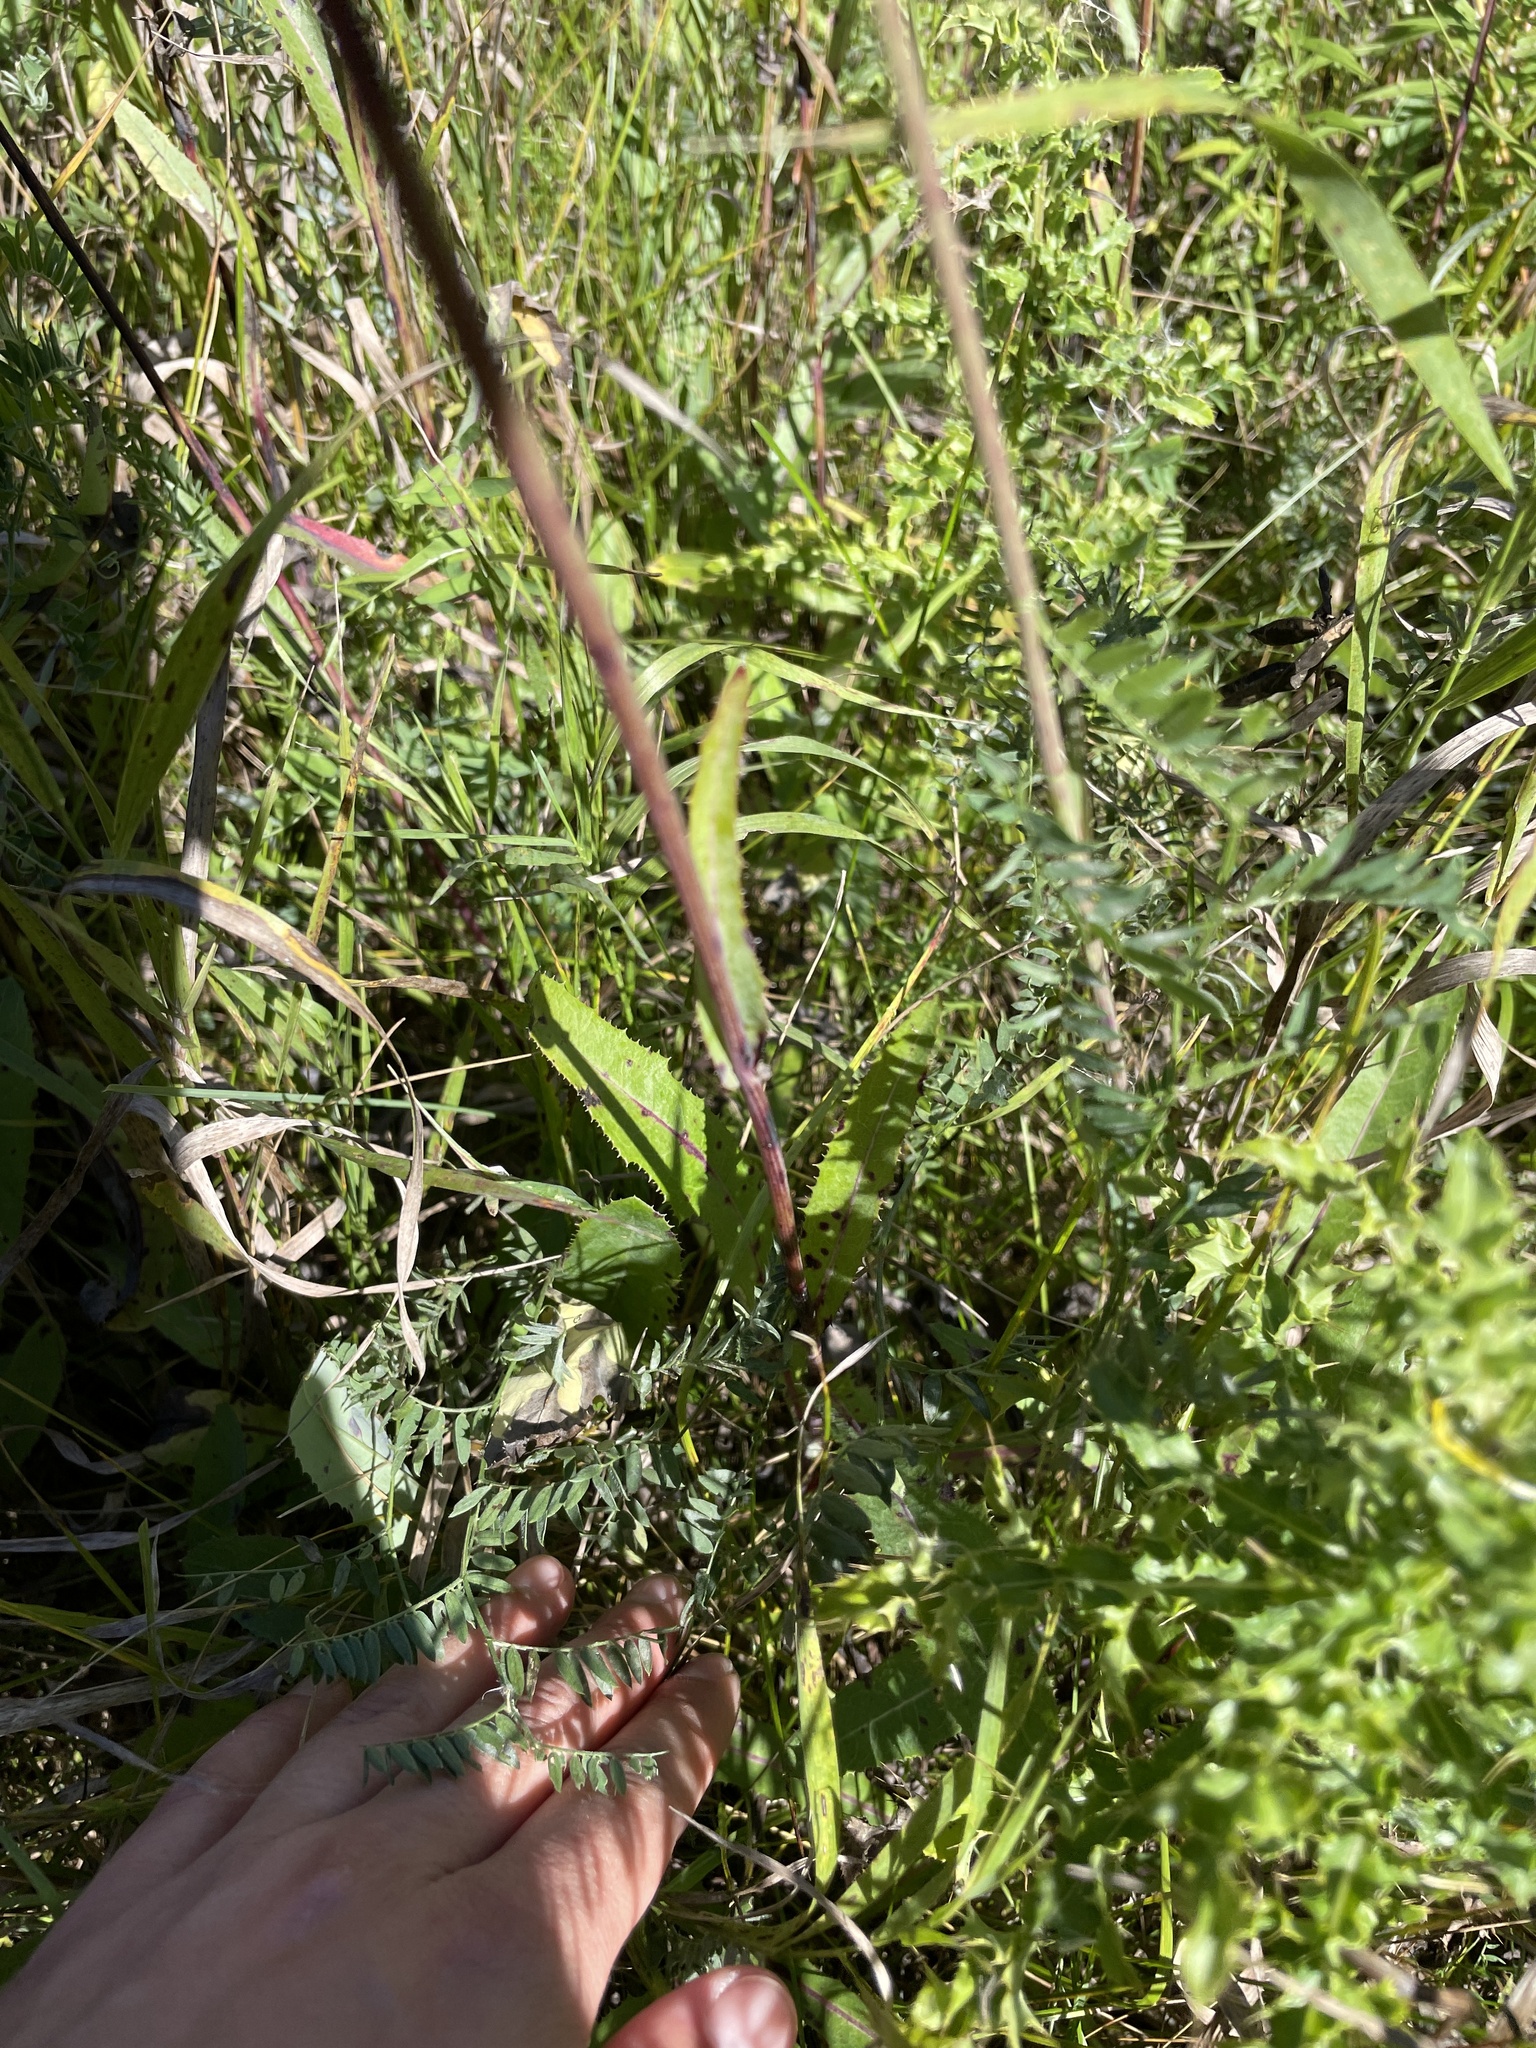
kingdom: Plantae
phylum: Tracheophyta
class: Magnoliopsida
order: Asterales
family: Asteraceae
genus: Sonchus
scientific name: Sonchus arvensis
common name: Perennial sow-thistle
